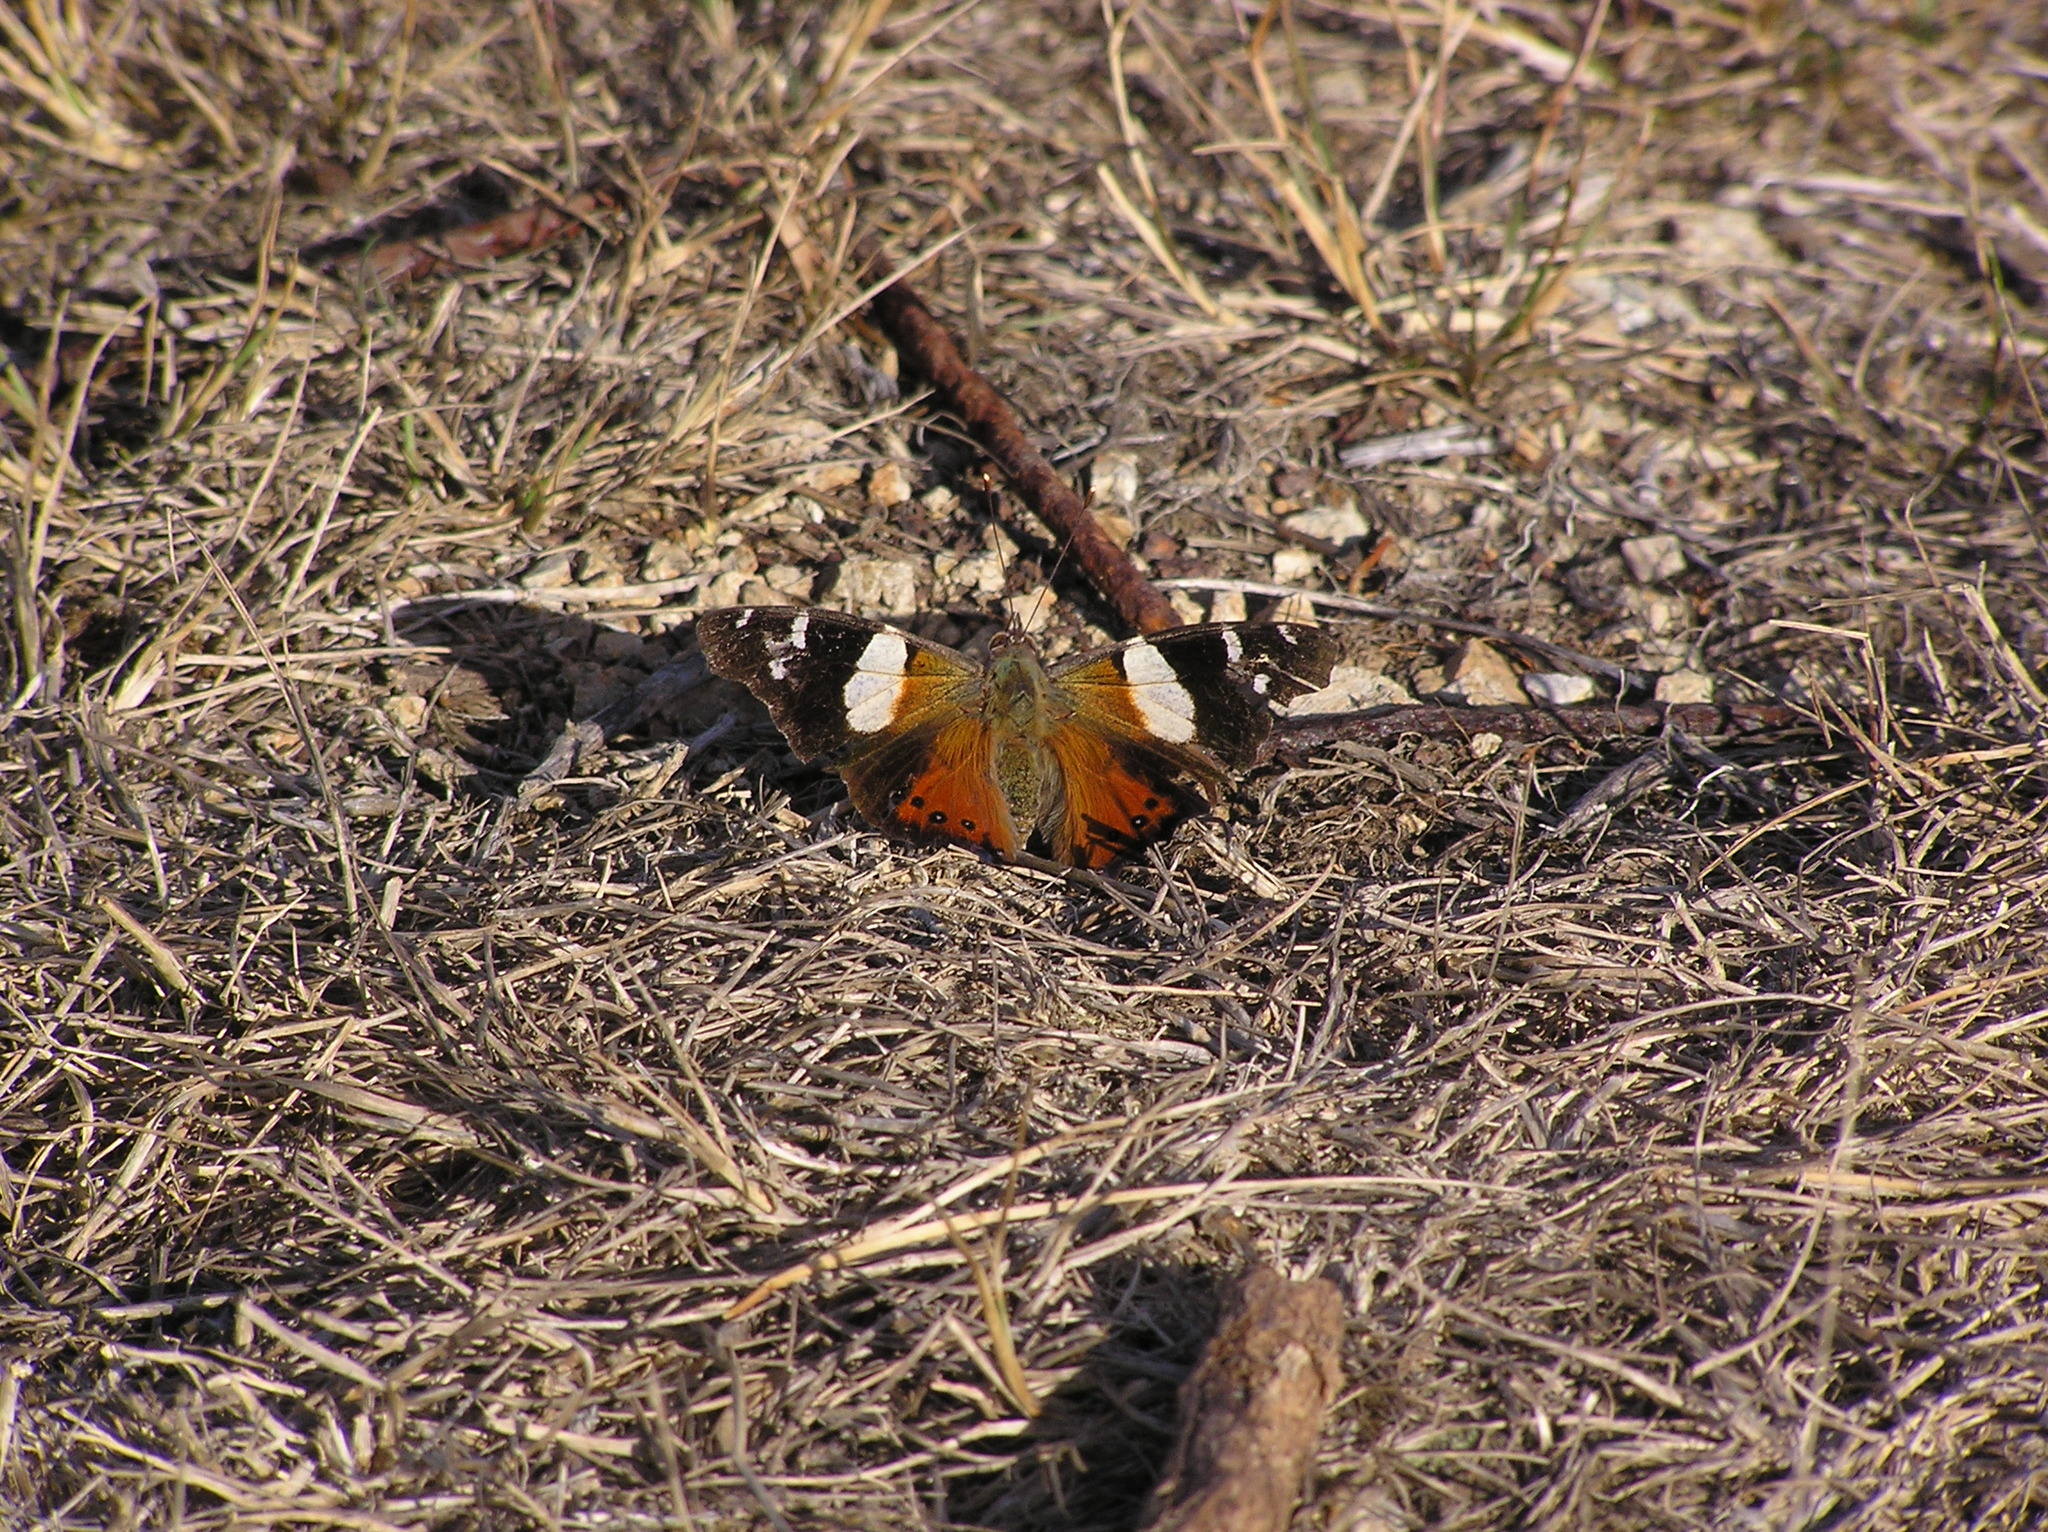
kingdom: Animalia
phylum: Arthropoda
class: Insecta
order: Lepidoptera
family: Nymphalidae
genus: Vanessa
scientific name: Vanessa itea
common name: Yellow admiral
